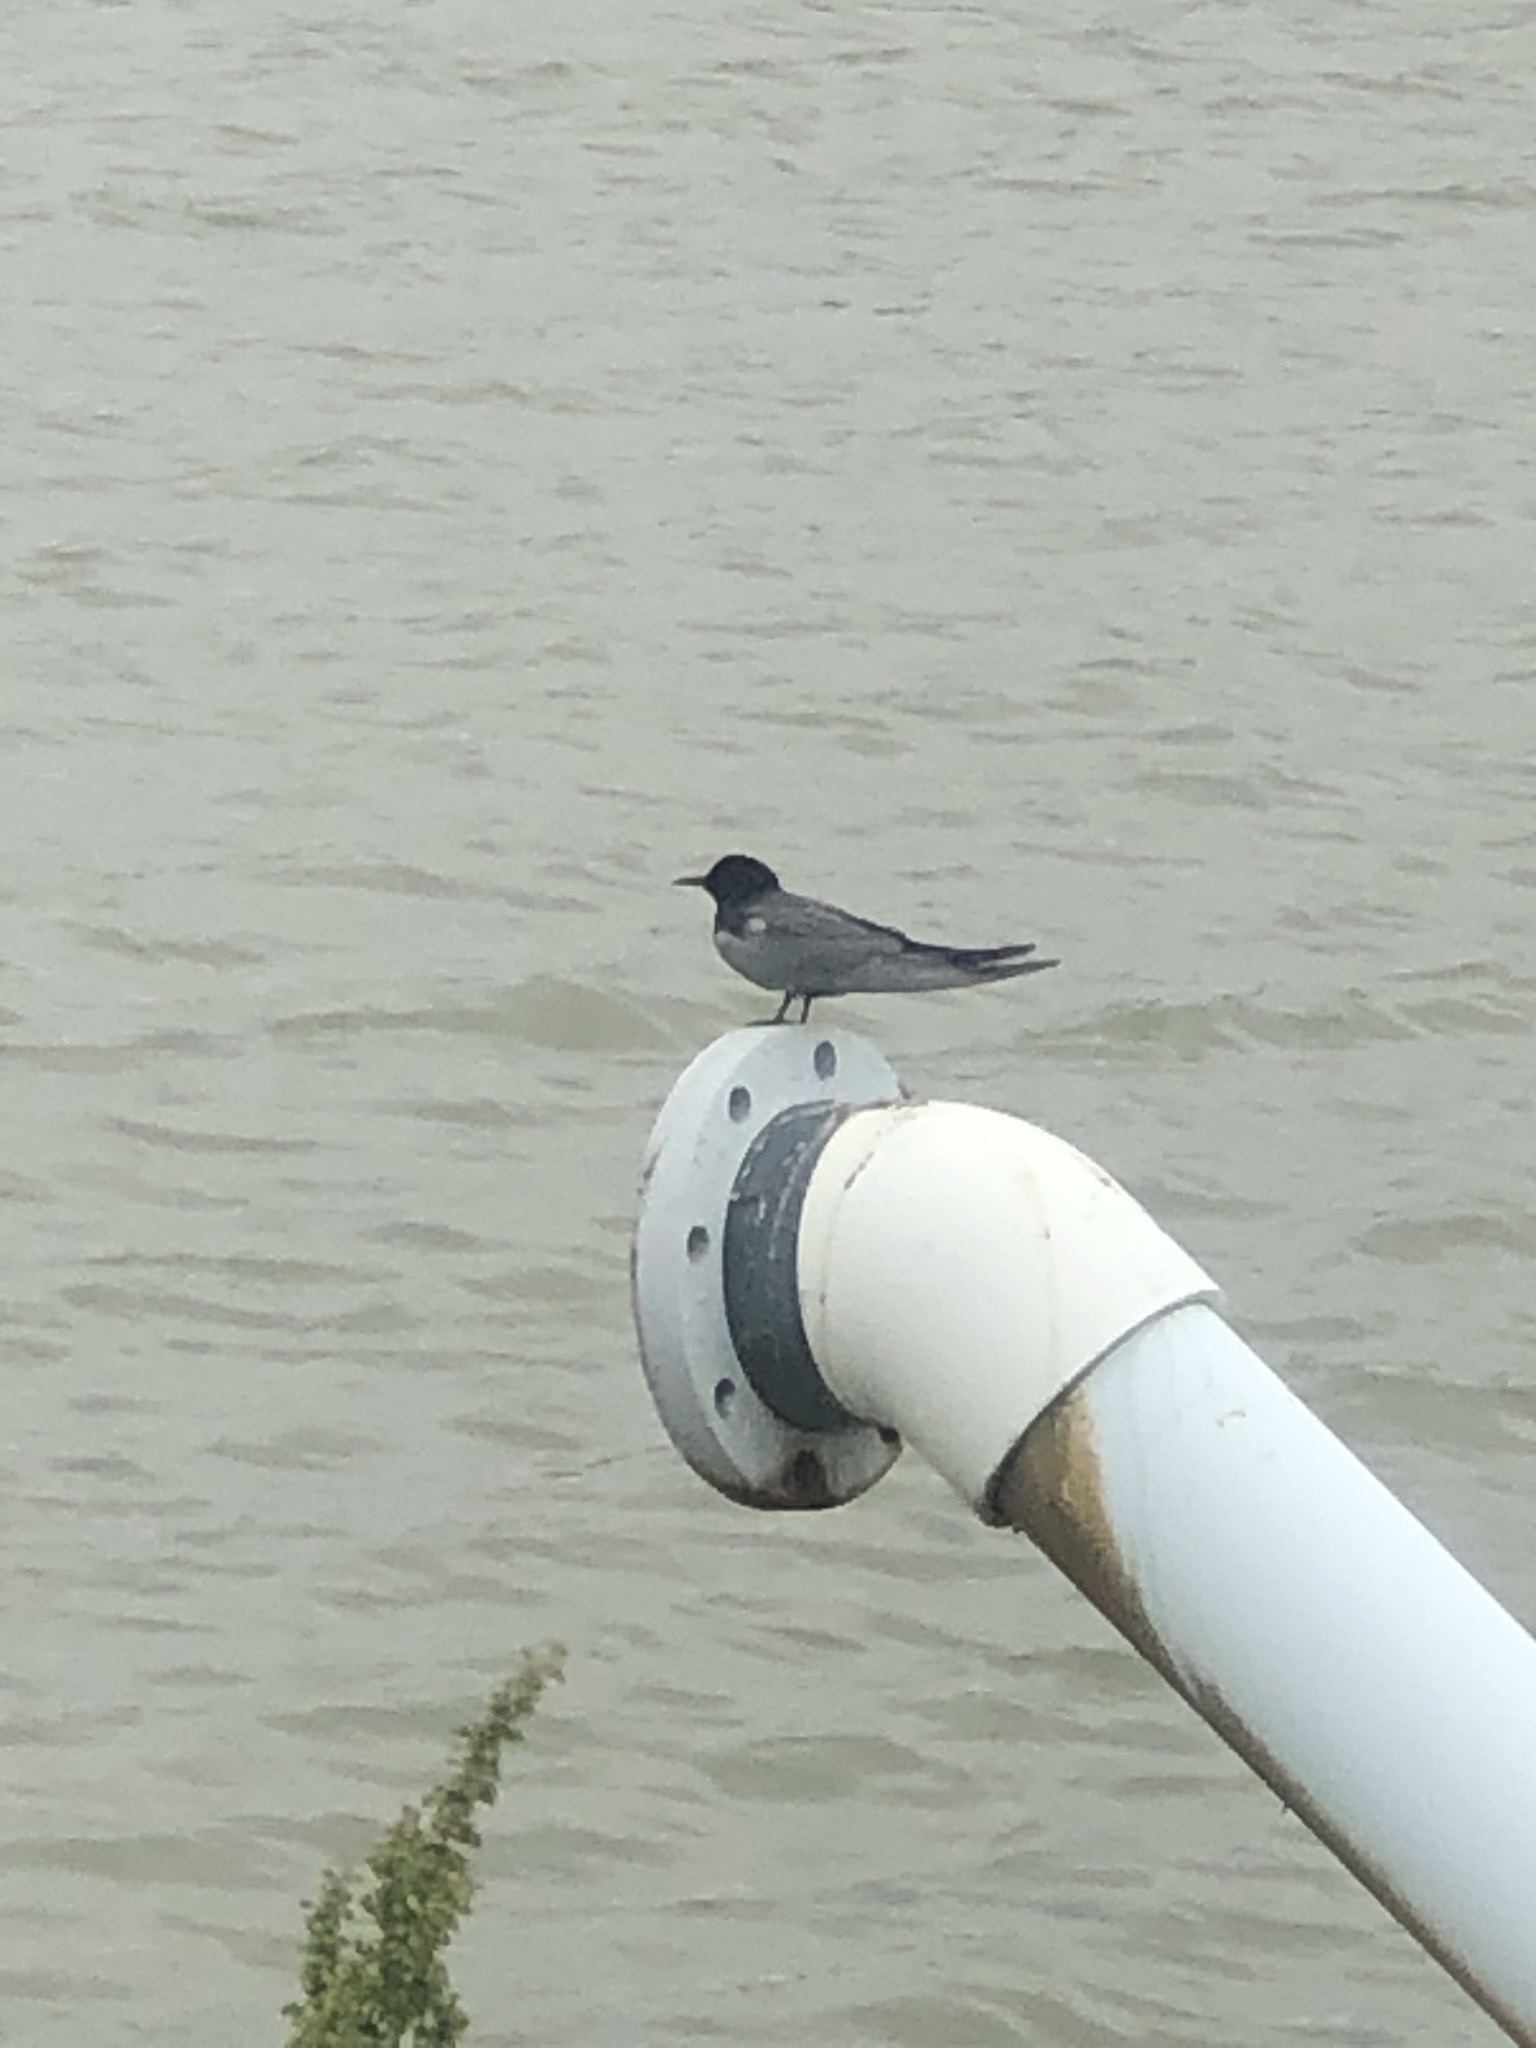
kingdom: Animalia
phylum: Chordata
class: Aves
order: Charadriiformes
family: Laridae
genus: Chlidonias
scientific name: Chlidonias niger
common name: Black tern
